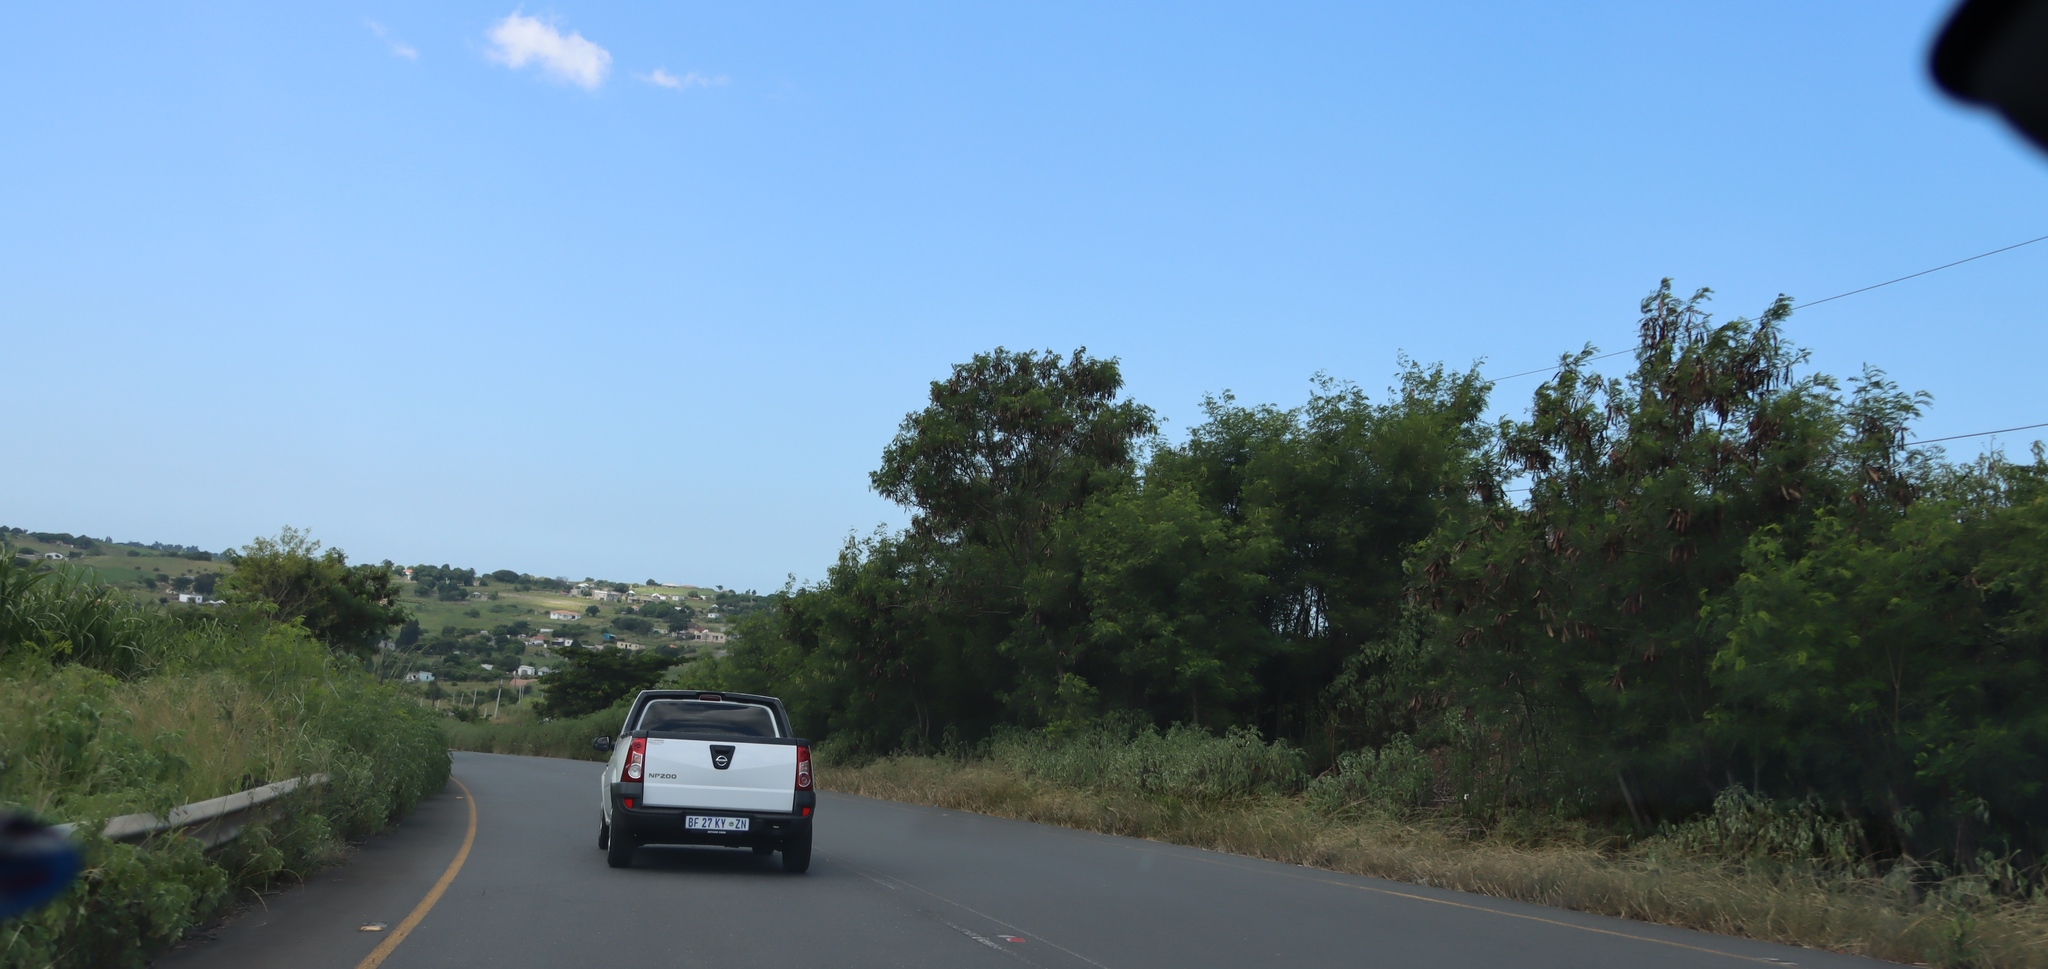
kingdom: Plantae
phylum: Tracheophyta
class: Magnoliopsida
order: Fabales
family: Fabaceae
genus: Leucaena
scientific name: Leucaena leucocephala
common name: White leadtree
